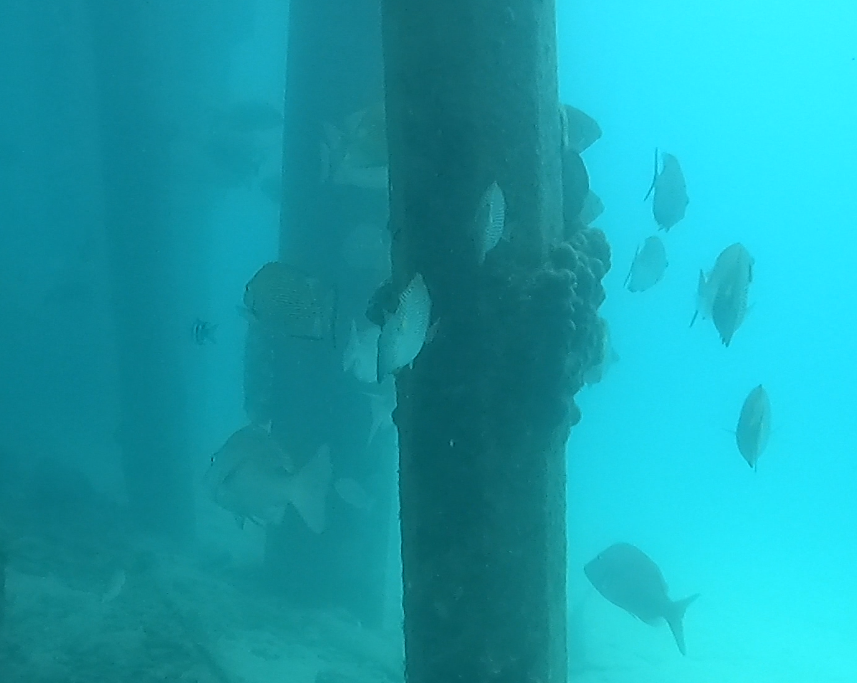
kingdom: Animalia
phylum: Chordata
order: Perciformes
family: Siganidae
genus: Siganus
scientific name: Siganus lineatus
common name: Lined rabbitfish
